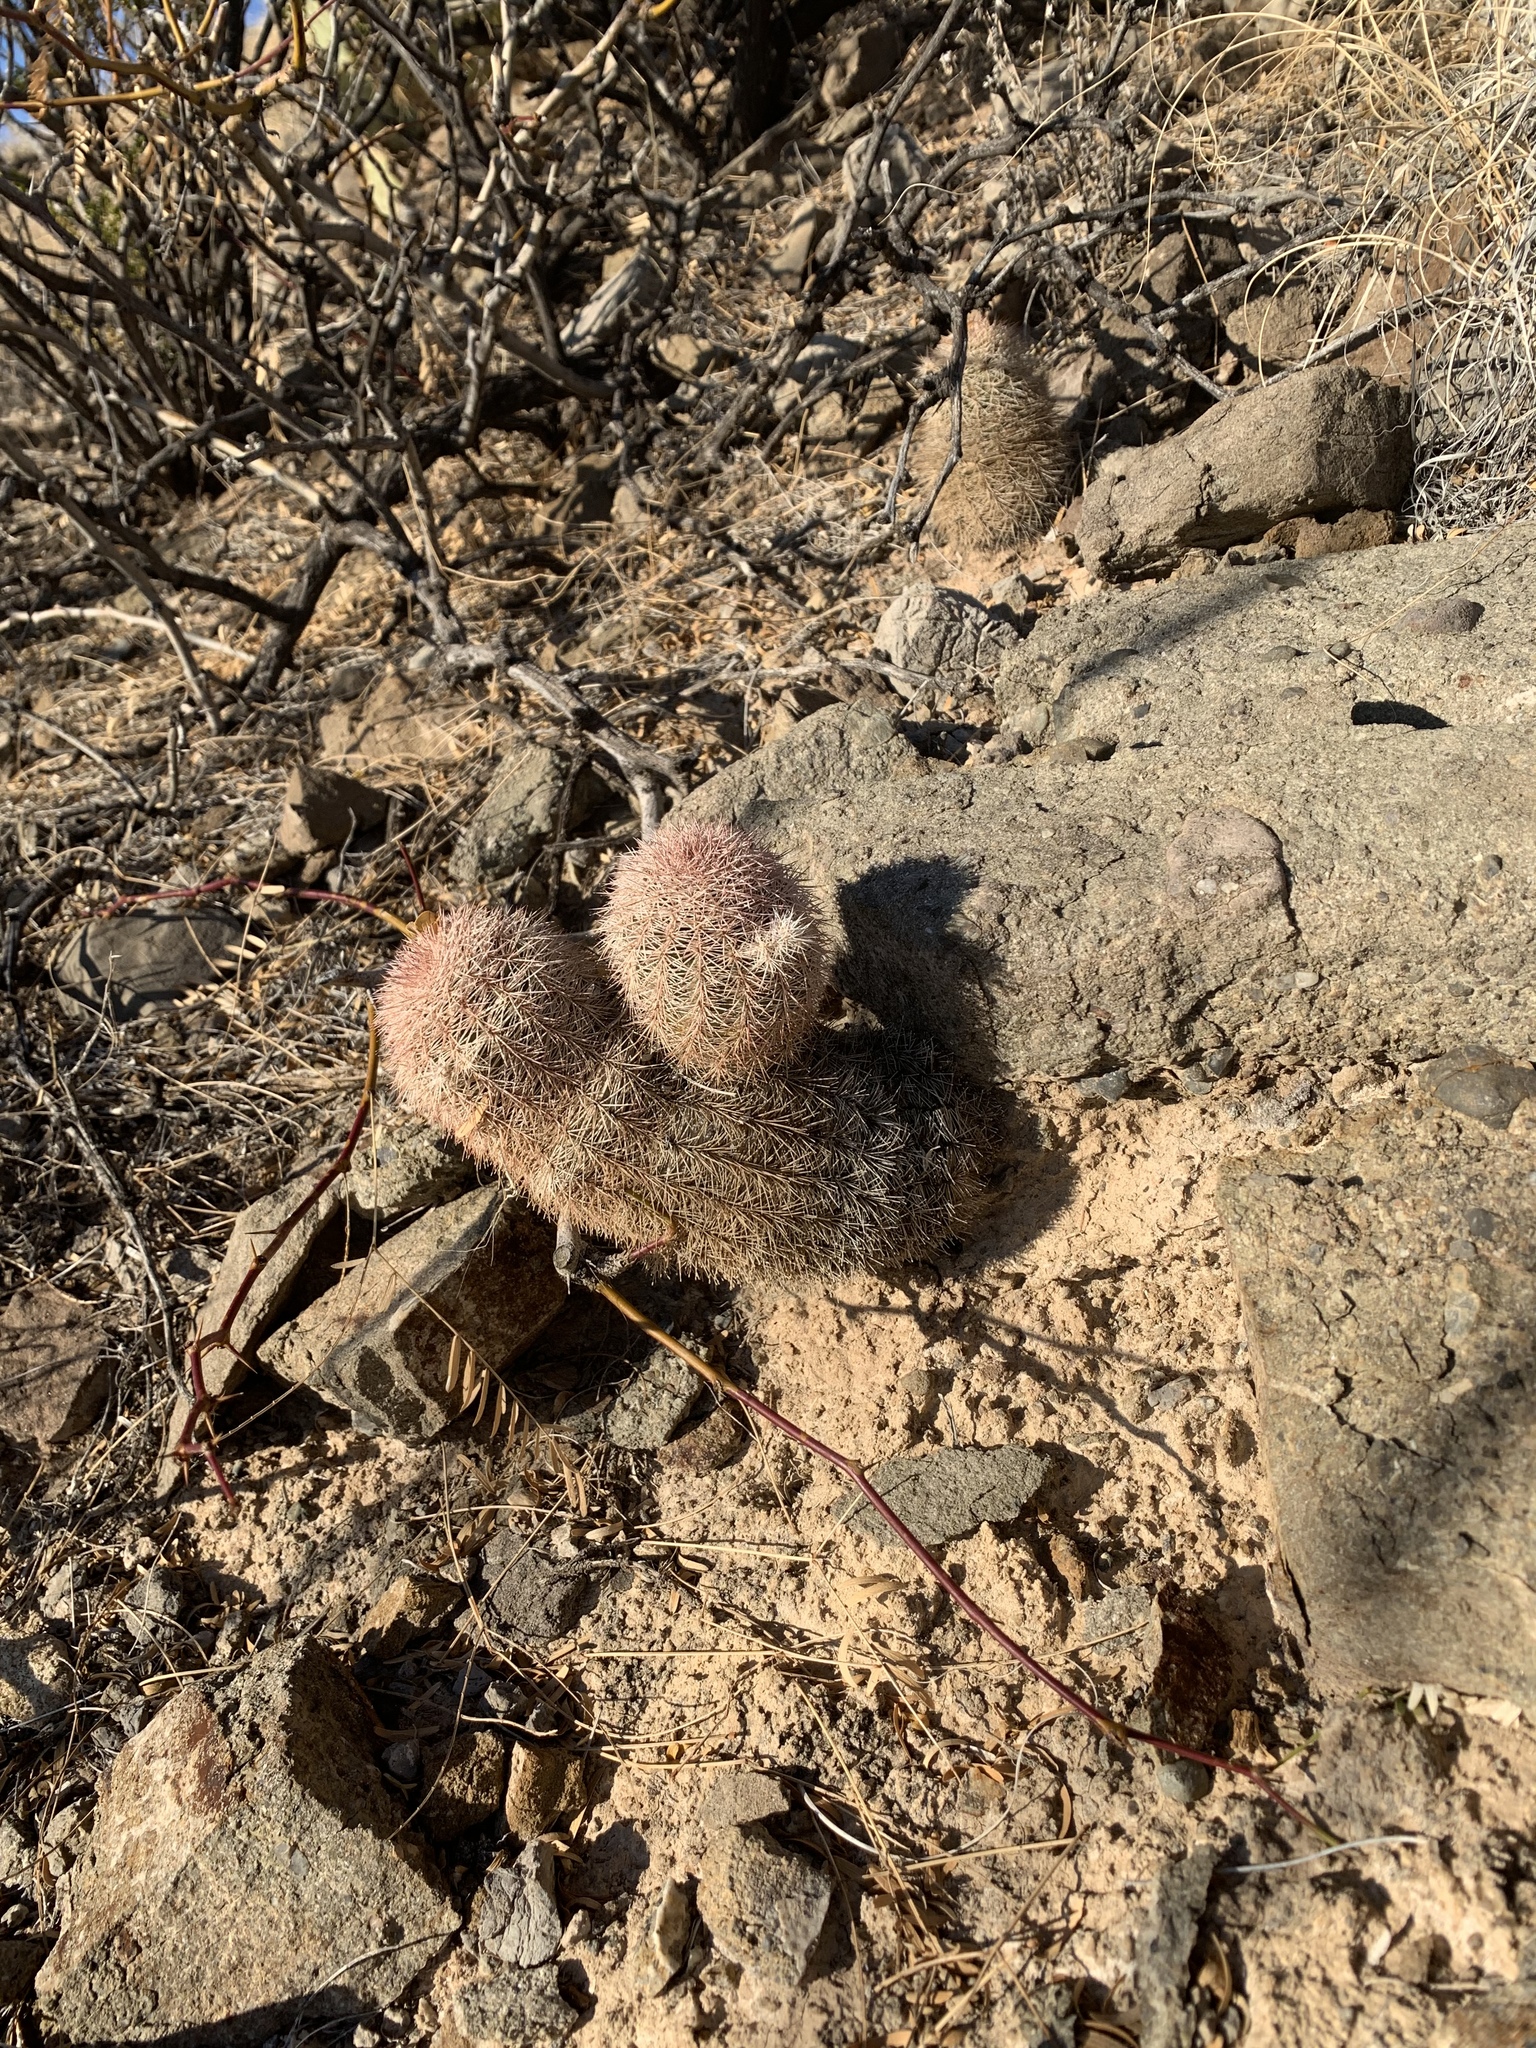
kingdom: Plantae
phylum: Tracheophyta
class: Magnoliopsida
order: Caryophyllales
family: Cactaceae
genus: Echinocereus
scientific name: Echinocereus dasyacanthus
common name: Spiny hedgehog cactus
